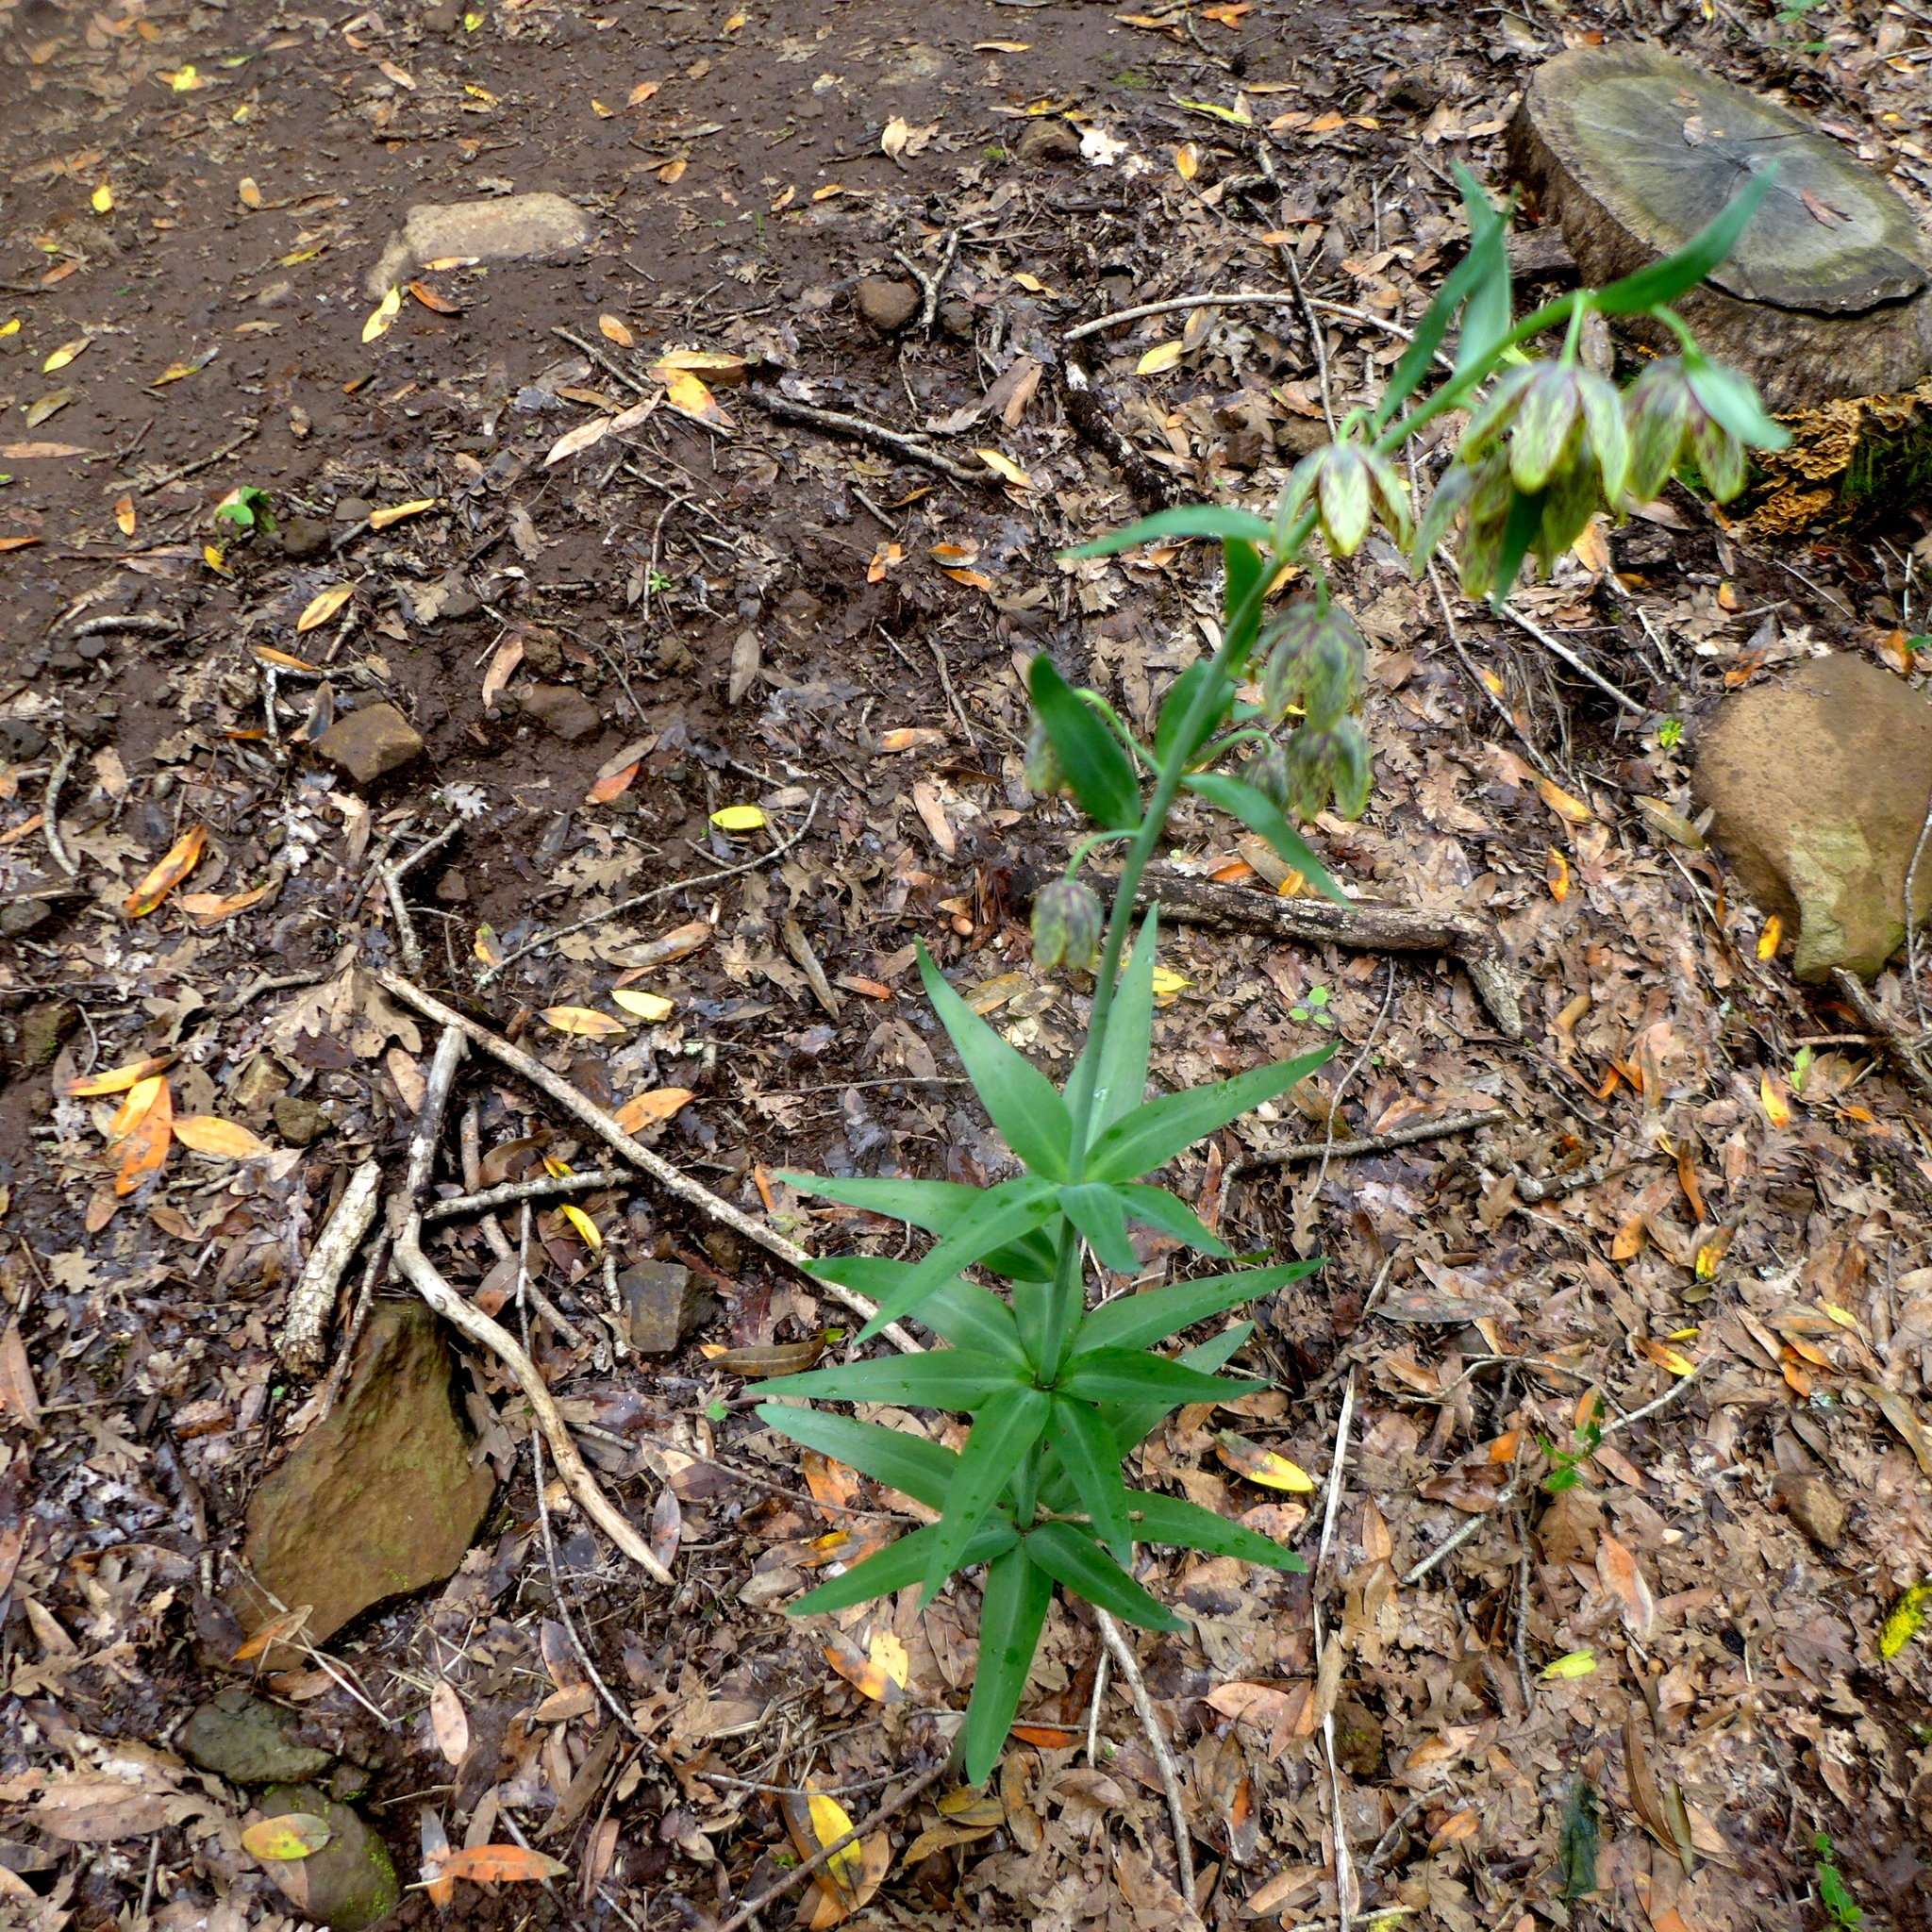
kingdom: Plantae
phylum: Tracheophyta
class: Liliopsida
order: Liliales
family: Liliaceae
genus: Fritillaria
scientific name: Fritillaria affinis
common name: Ojai fritillary
